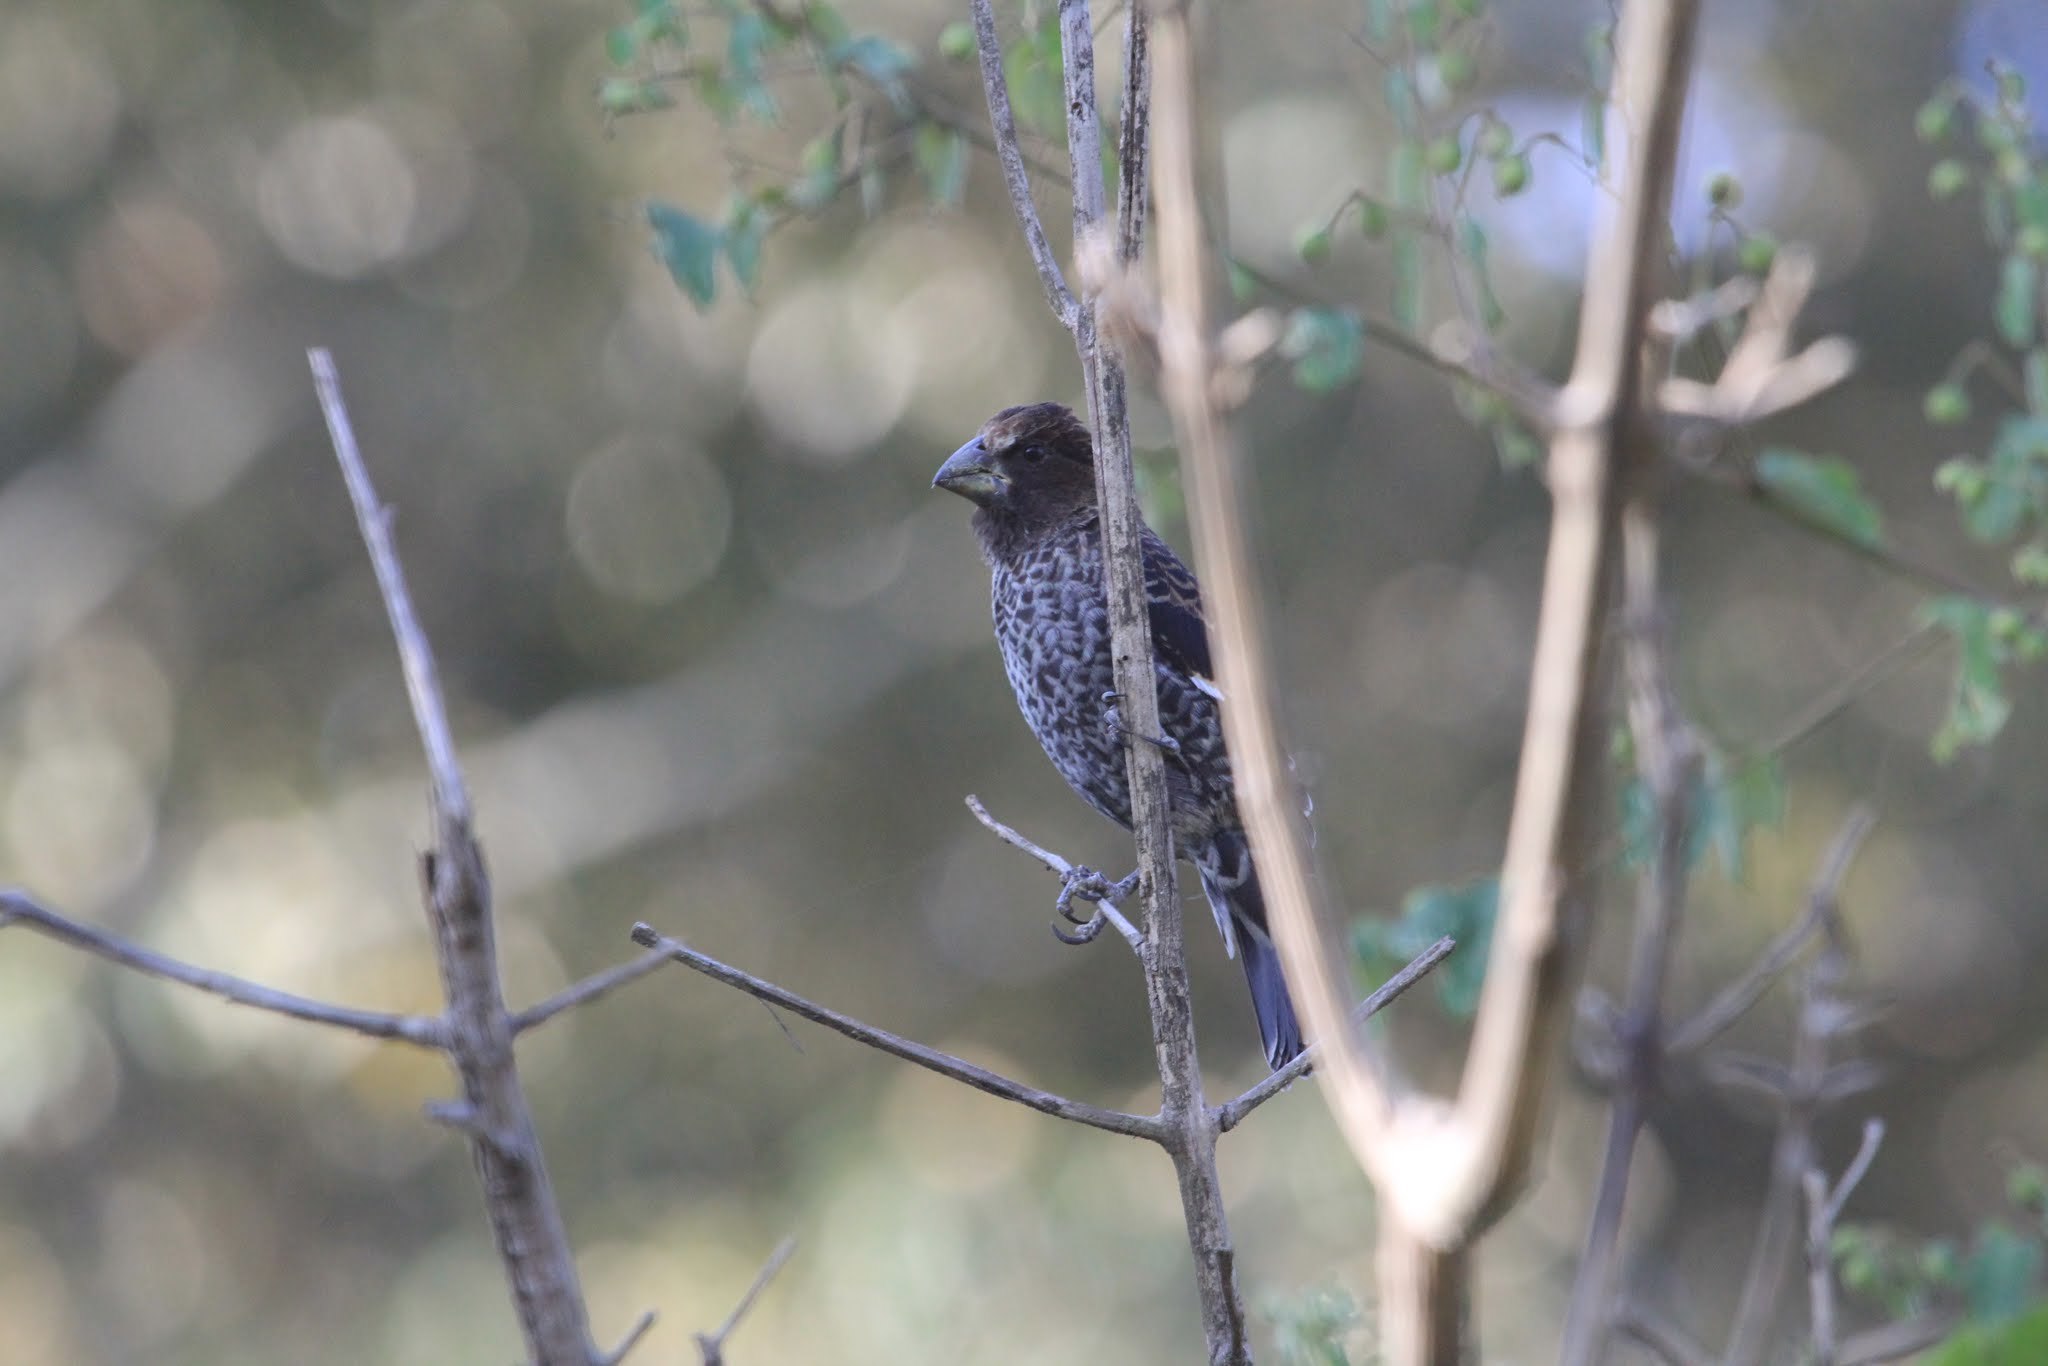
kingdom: Animalia
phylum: Chordata
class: Aves
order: Passeriformes
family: Ploceidae
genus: Amblyospiza
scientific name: Amblyospiza albifrons
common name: Thick-billed weaver
